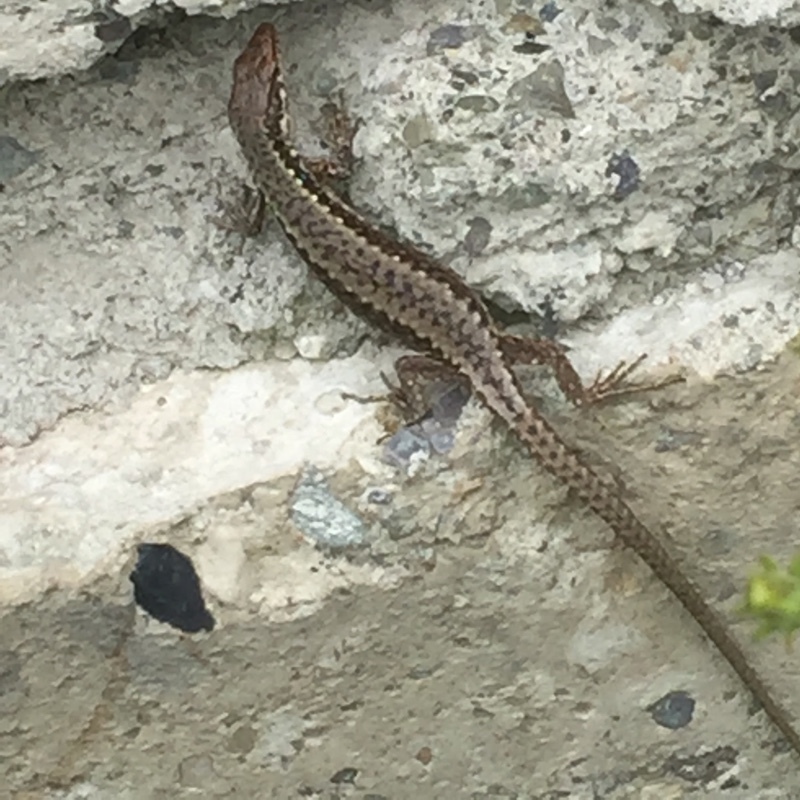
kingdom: Animalia
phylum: Chordata
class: Squamata
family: Lacertidae
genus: Darevskia
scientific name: Darevskia armeniaca
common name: Armenian lizard
